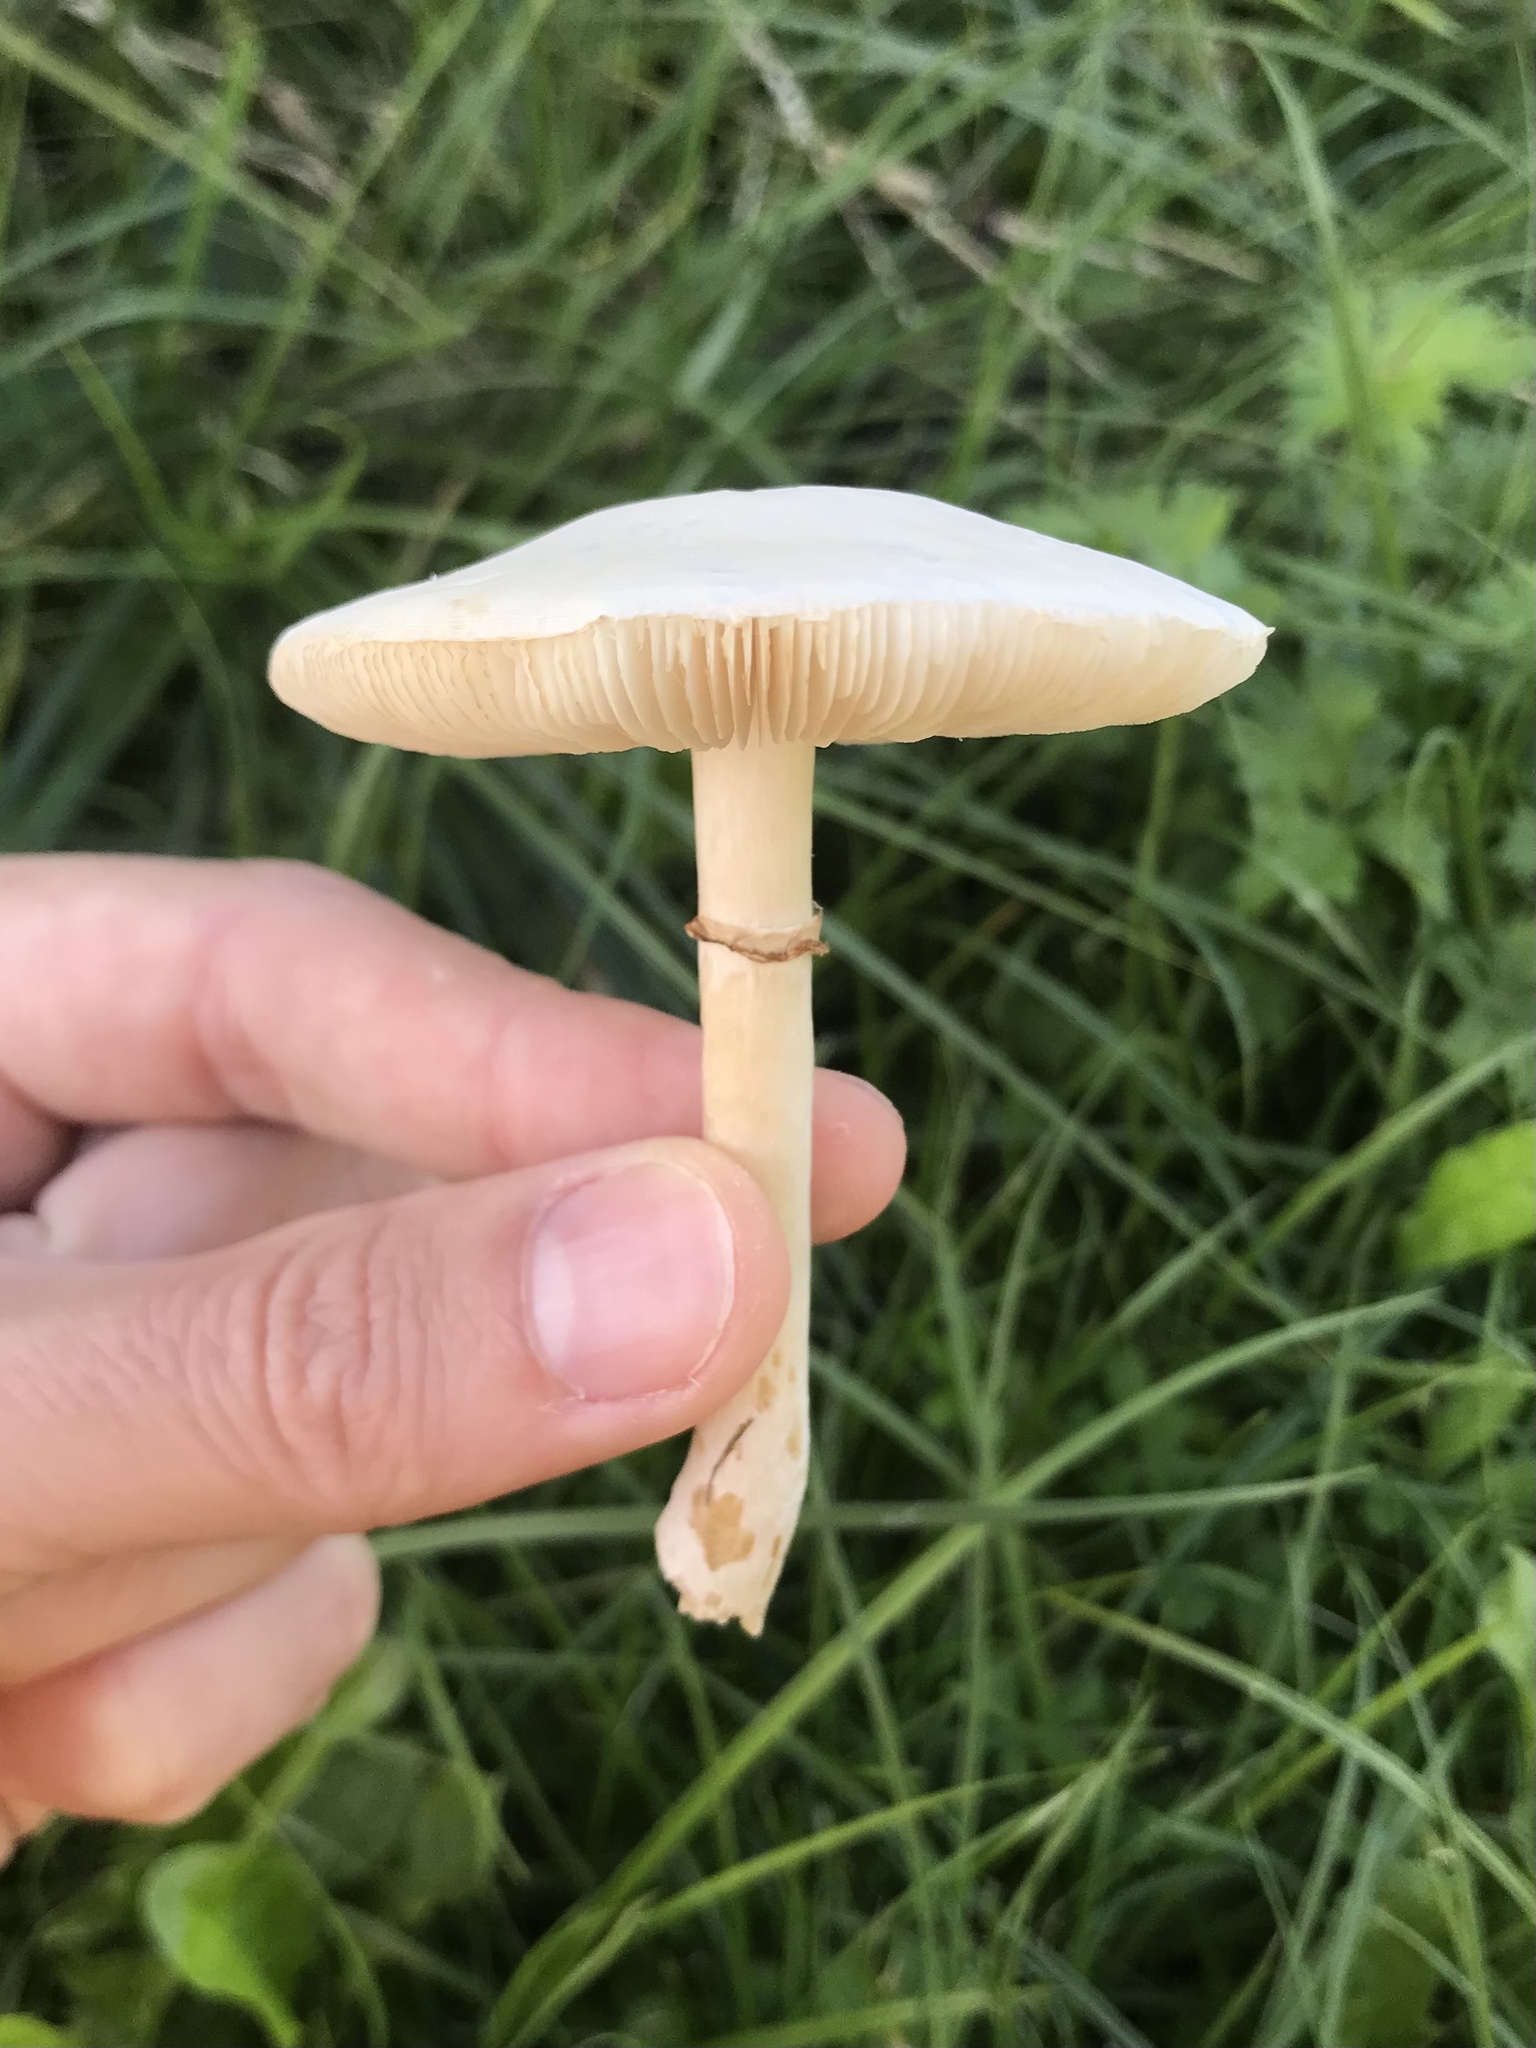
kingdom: Fungi
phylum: Basidiomycota
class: Agaricomycetes
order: Agaricales
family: Agaricaceae
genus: Leucoagaricus
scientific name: Leucoagaricus leucothites
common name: White dapperling
